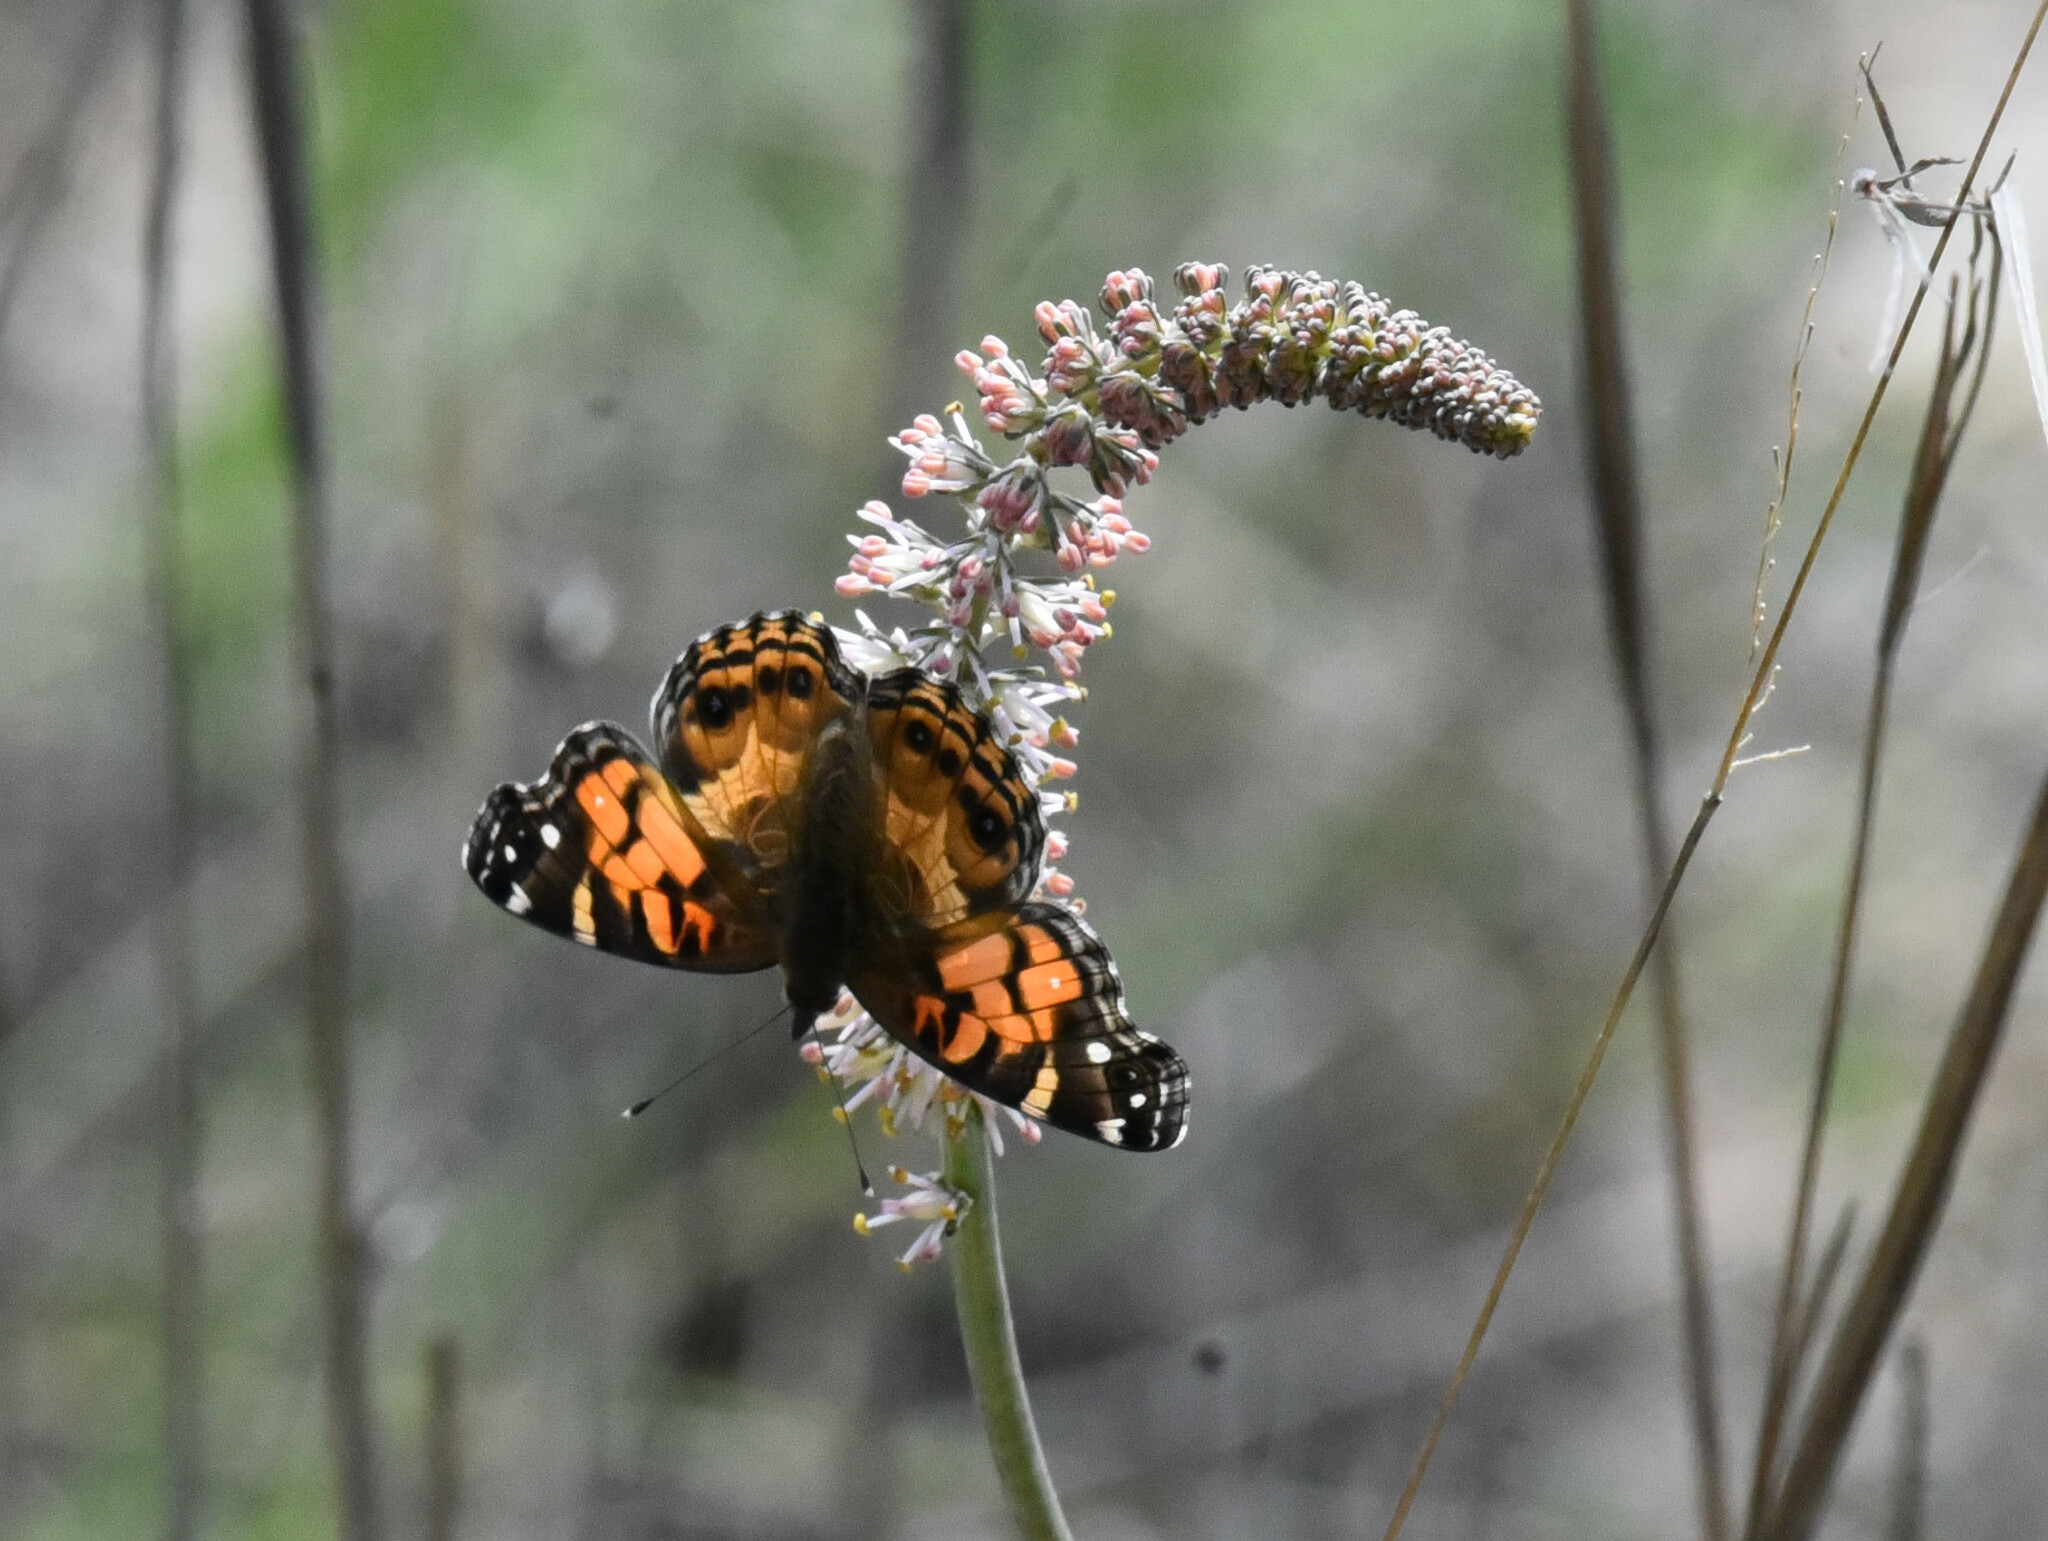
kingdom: Animalia
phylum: Arthropoda
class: Insecta
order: Lepidoptera
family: Nymphalidae
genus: Vanessa
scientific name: Vanessa virginiensis
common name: American lady
